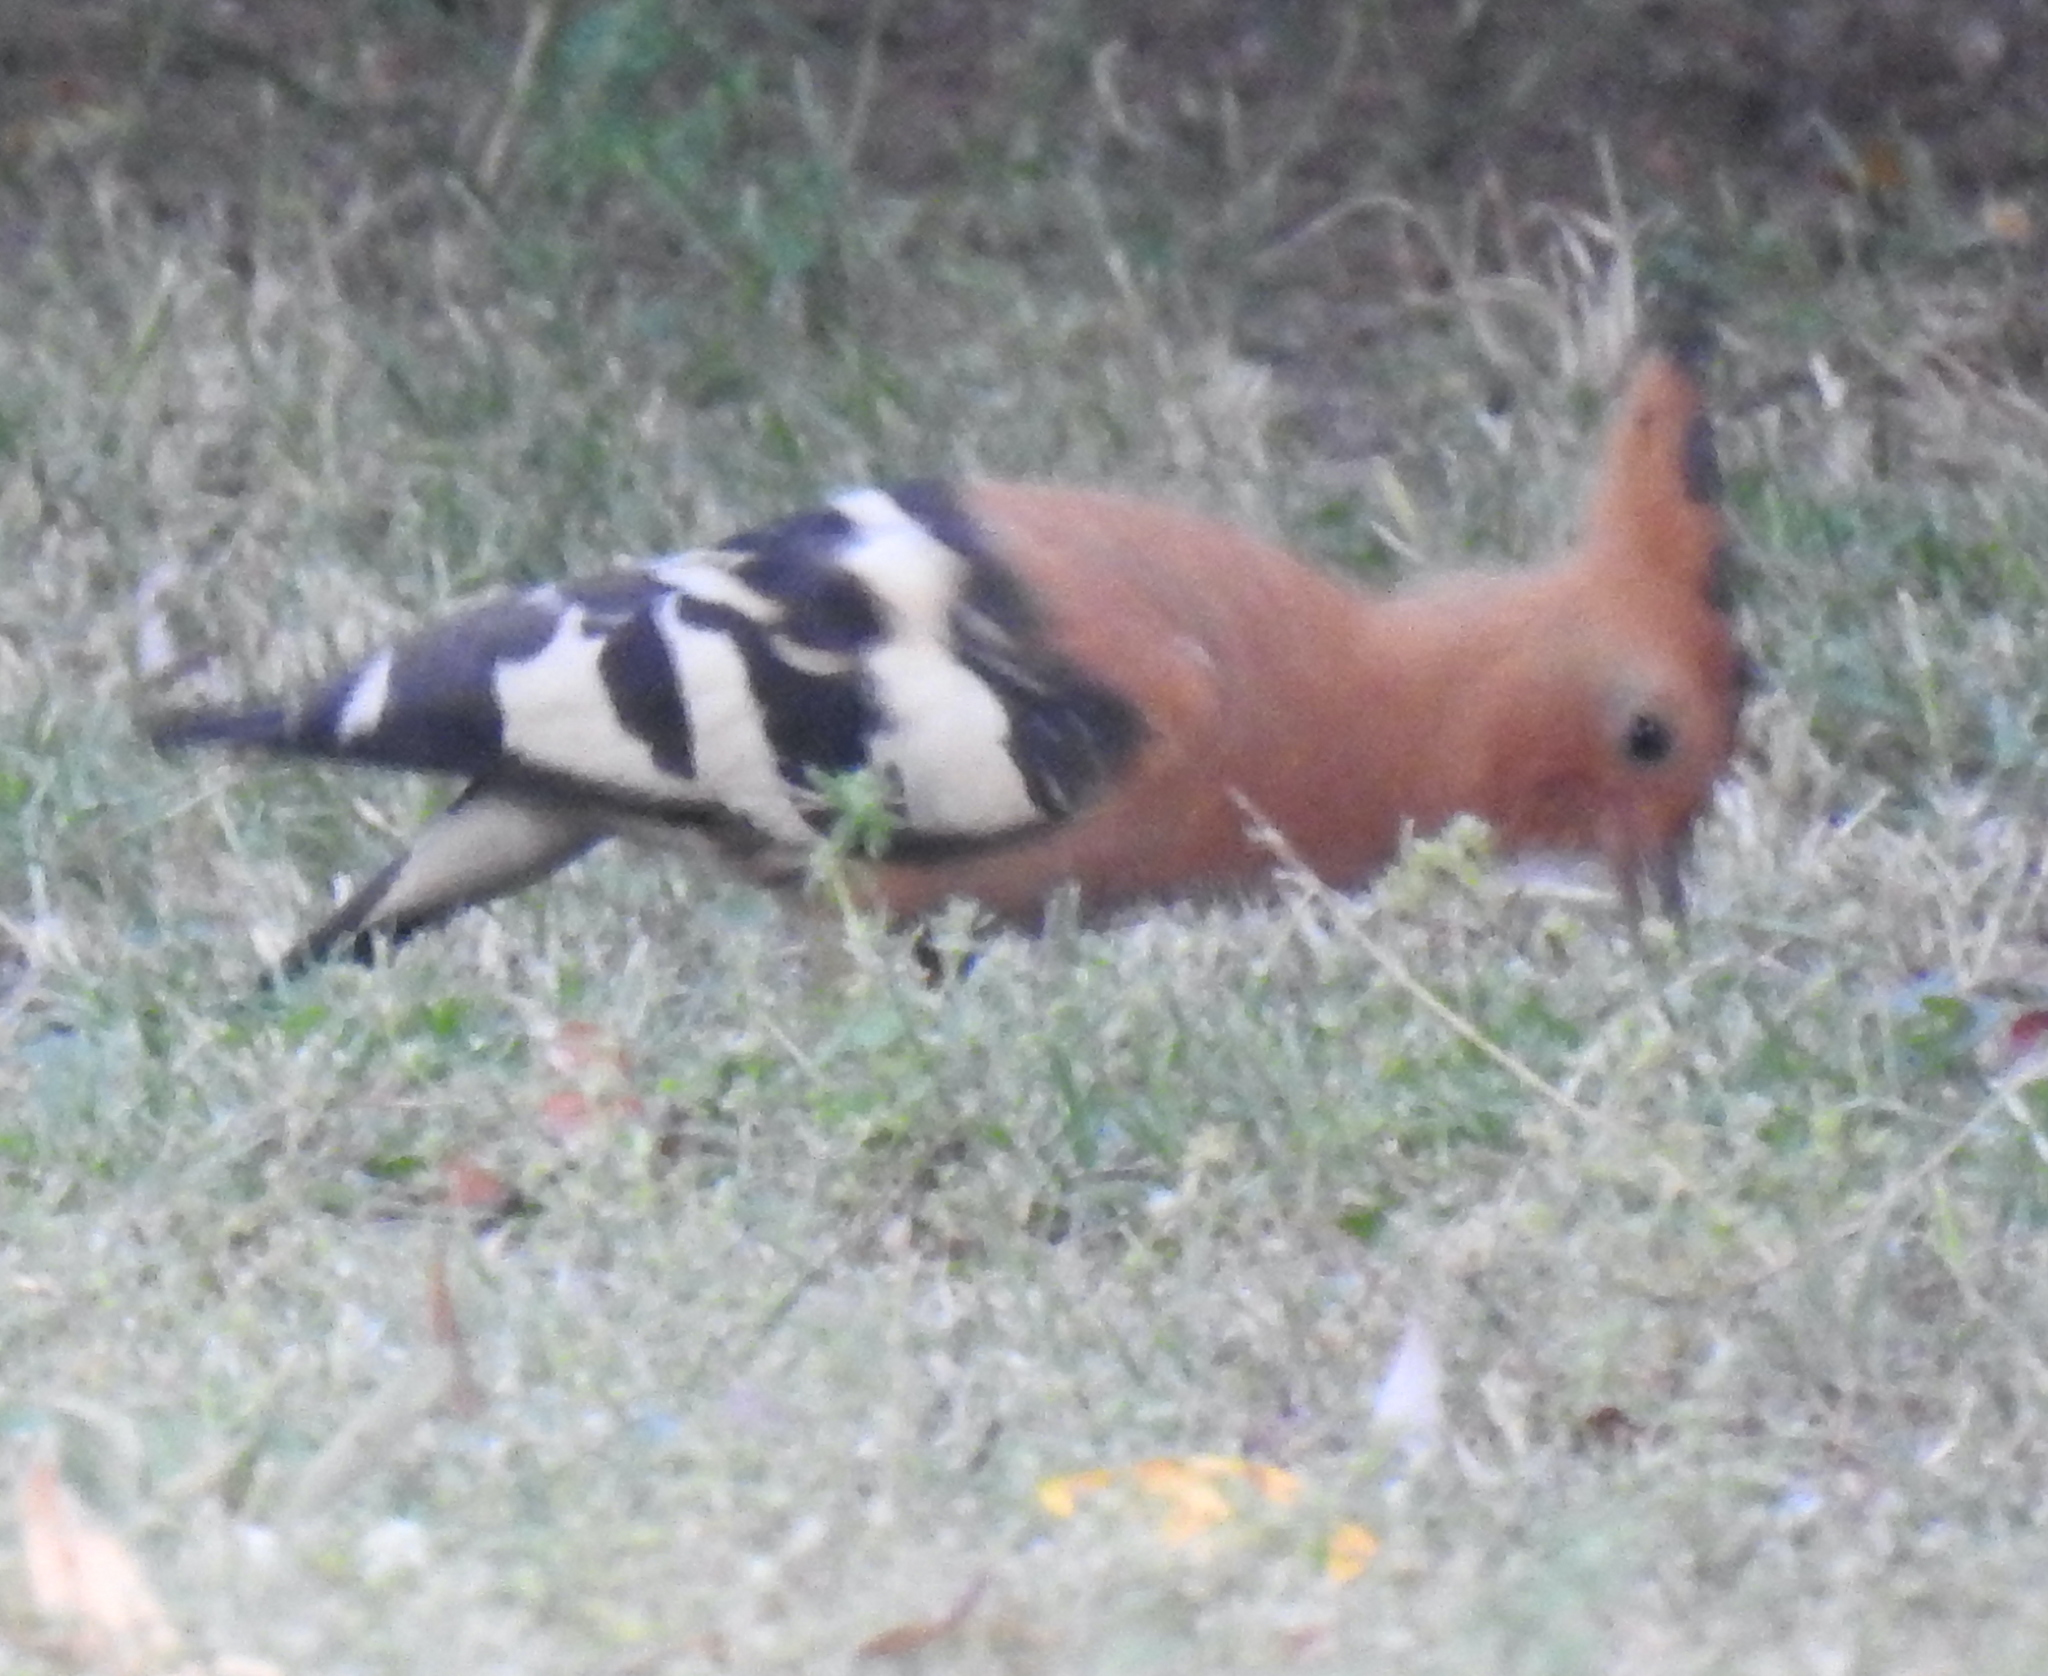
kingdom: Animalia
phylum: Chordata
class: Aves
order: Bucerotiformes
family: Upupidae
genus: Upupa
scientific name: Upupa africana
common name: African hoopoe
